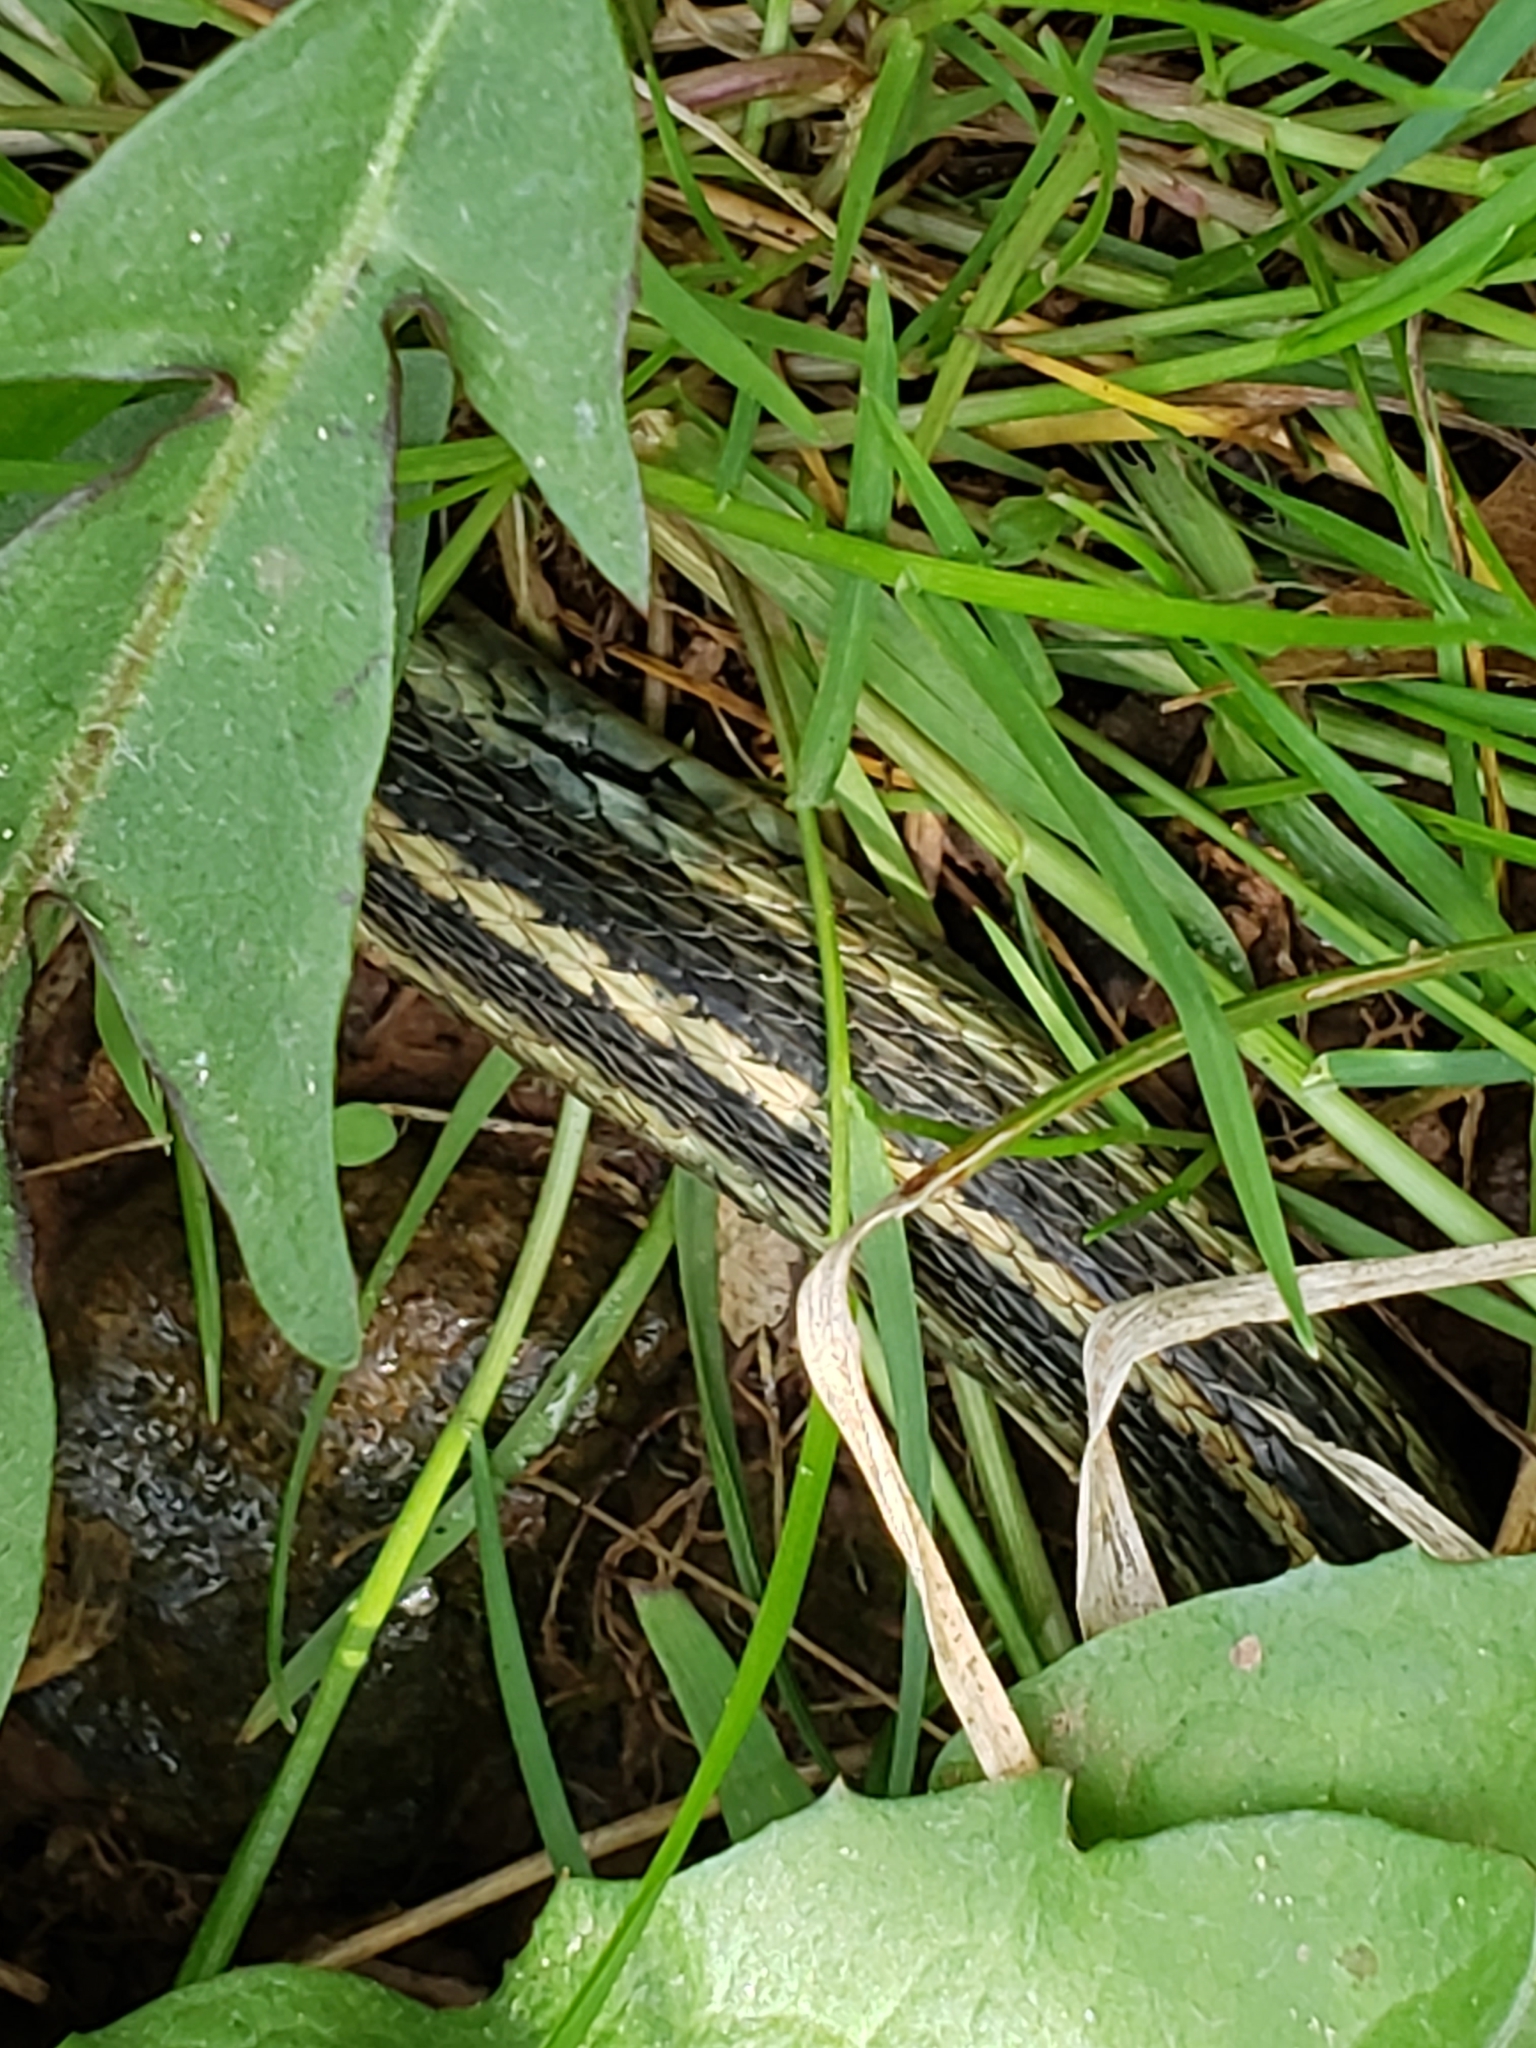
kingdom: Animalia
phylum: Chordata
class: Squamata
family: Colubridae
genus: Thamnophis
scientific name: Thamnophis sirtalis
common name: Common garter snake
